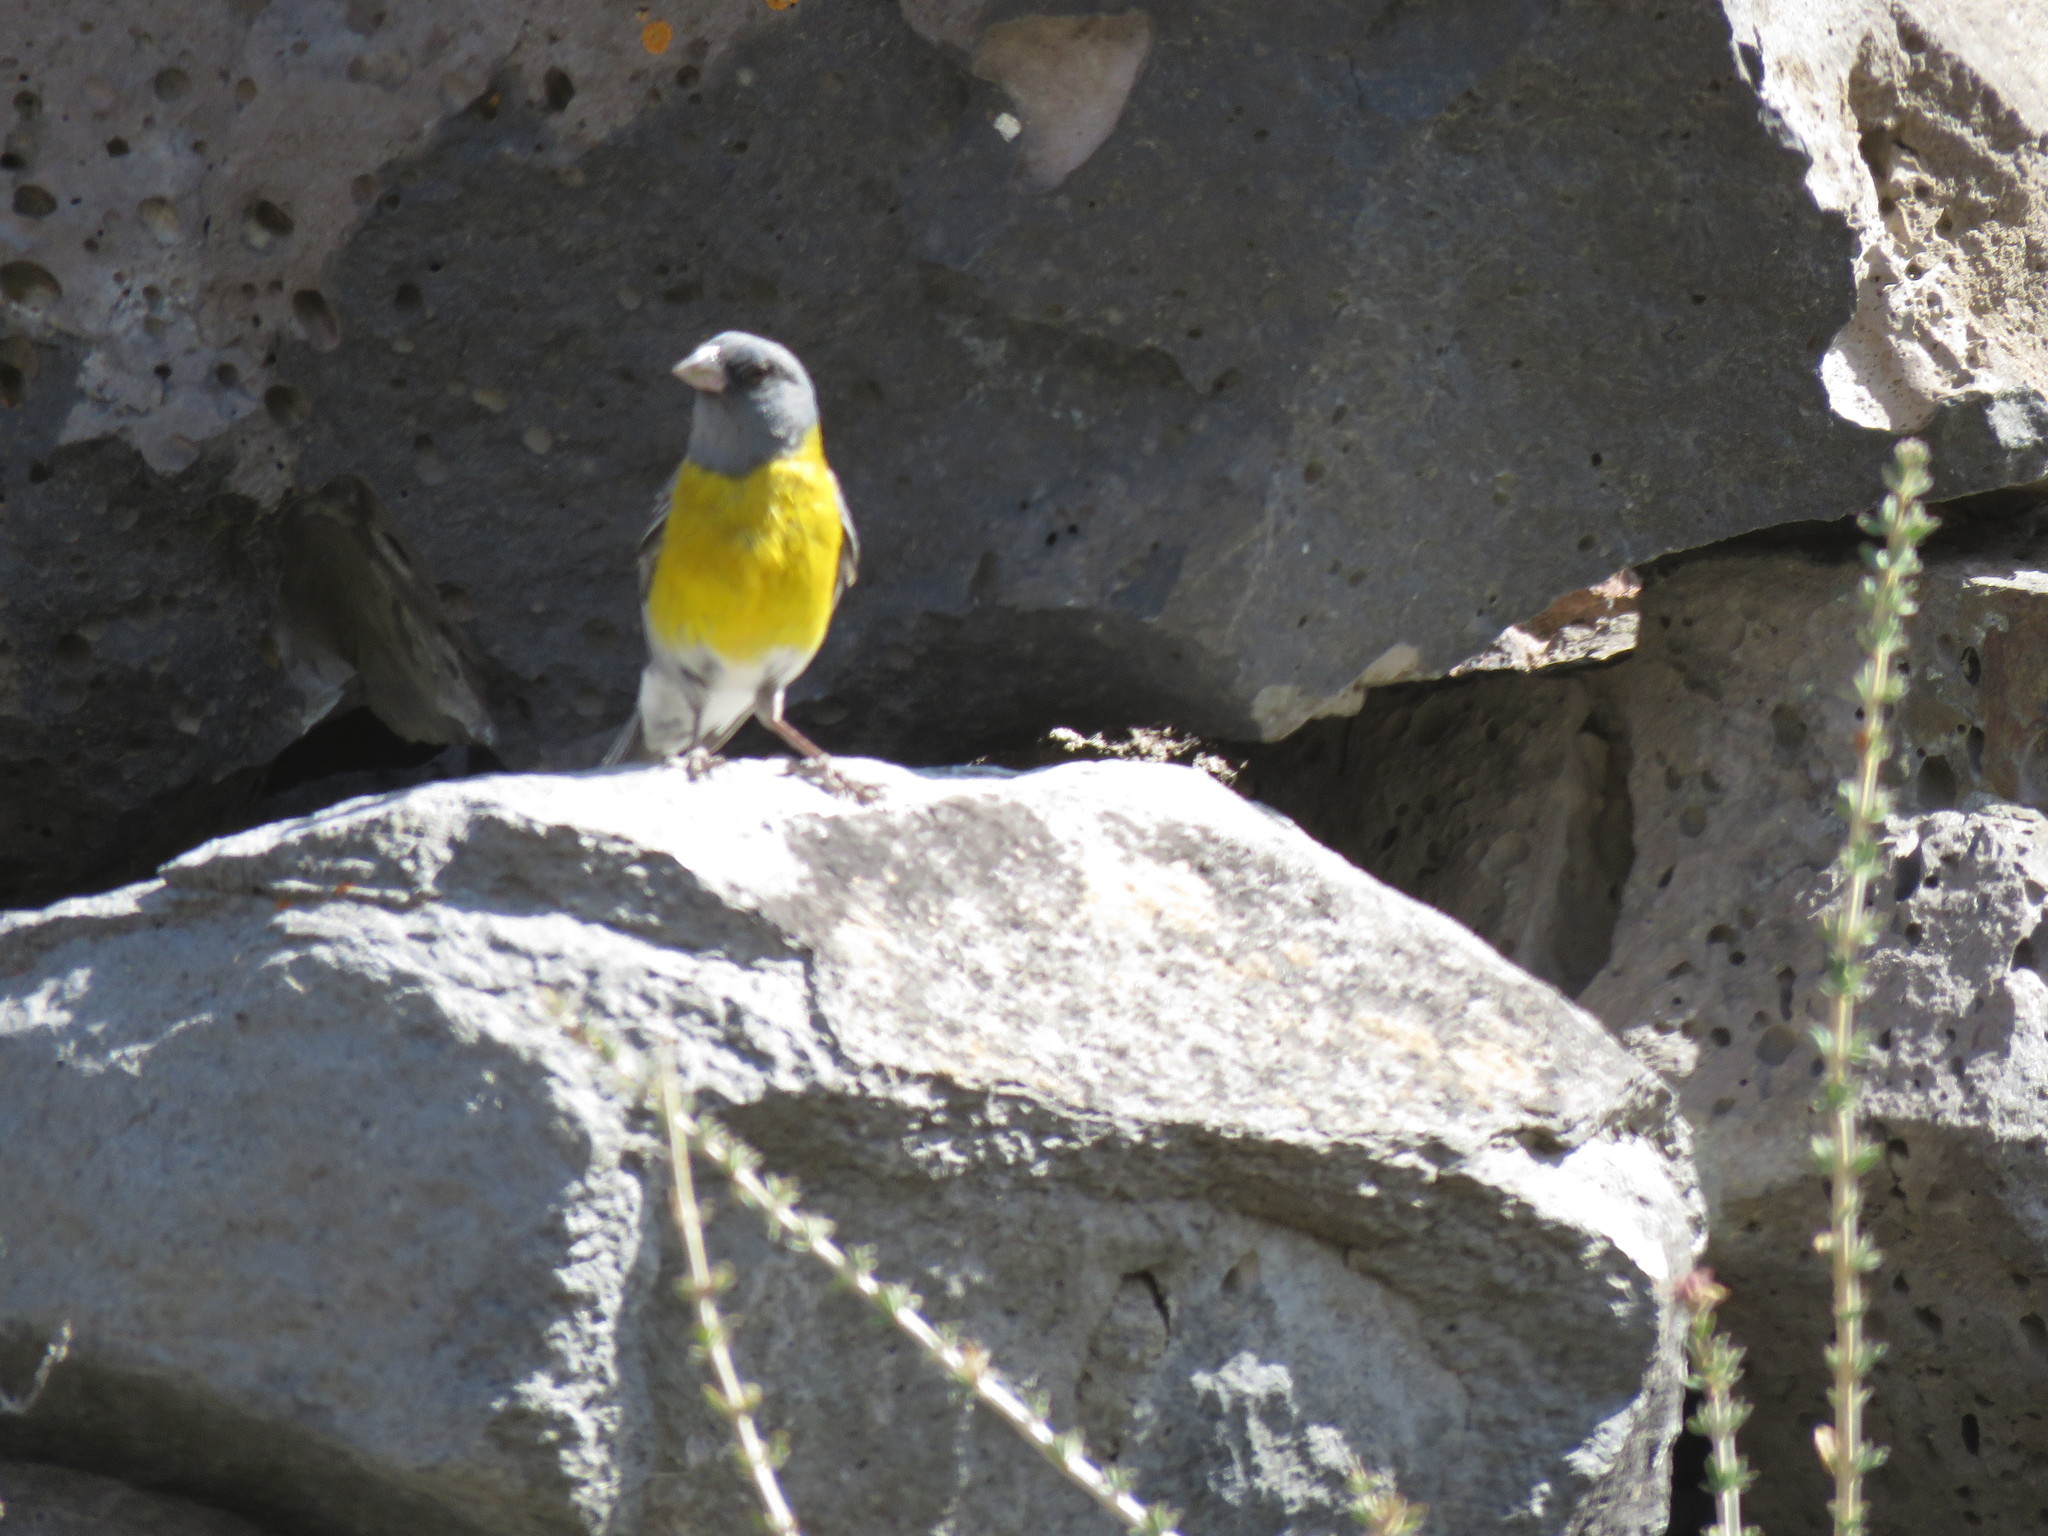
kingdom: Animalia
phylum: Chordata
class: Aves
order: Passeriformes
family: Thraupidae
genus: Phrygilus
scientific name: Phrygilus gayi
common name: Grey-hooded sierra finch
